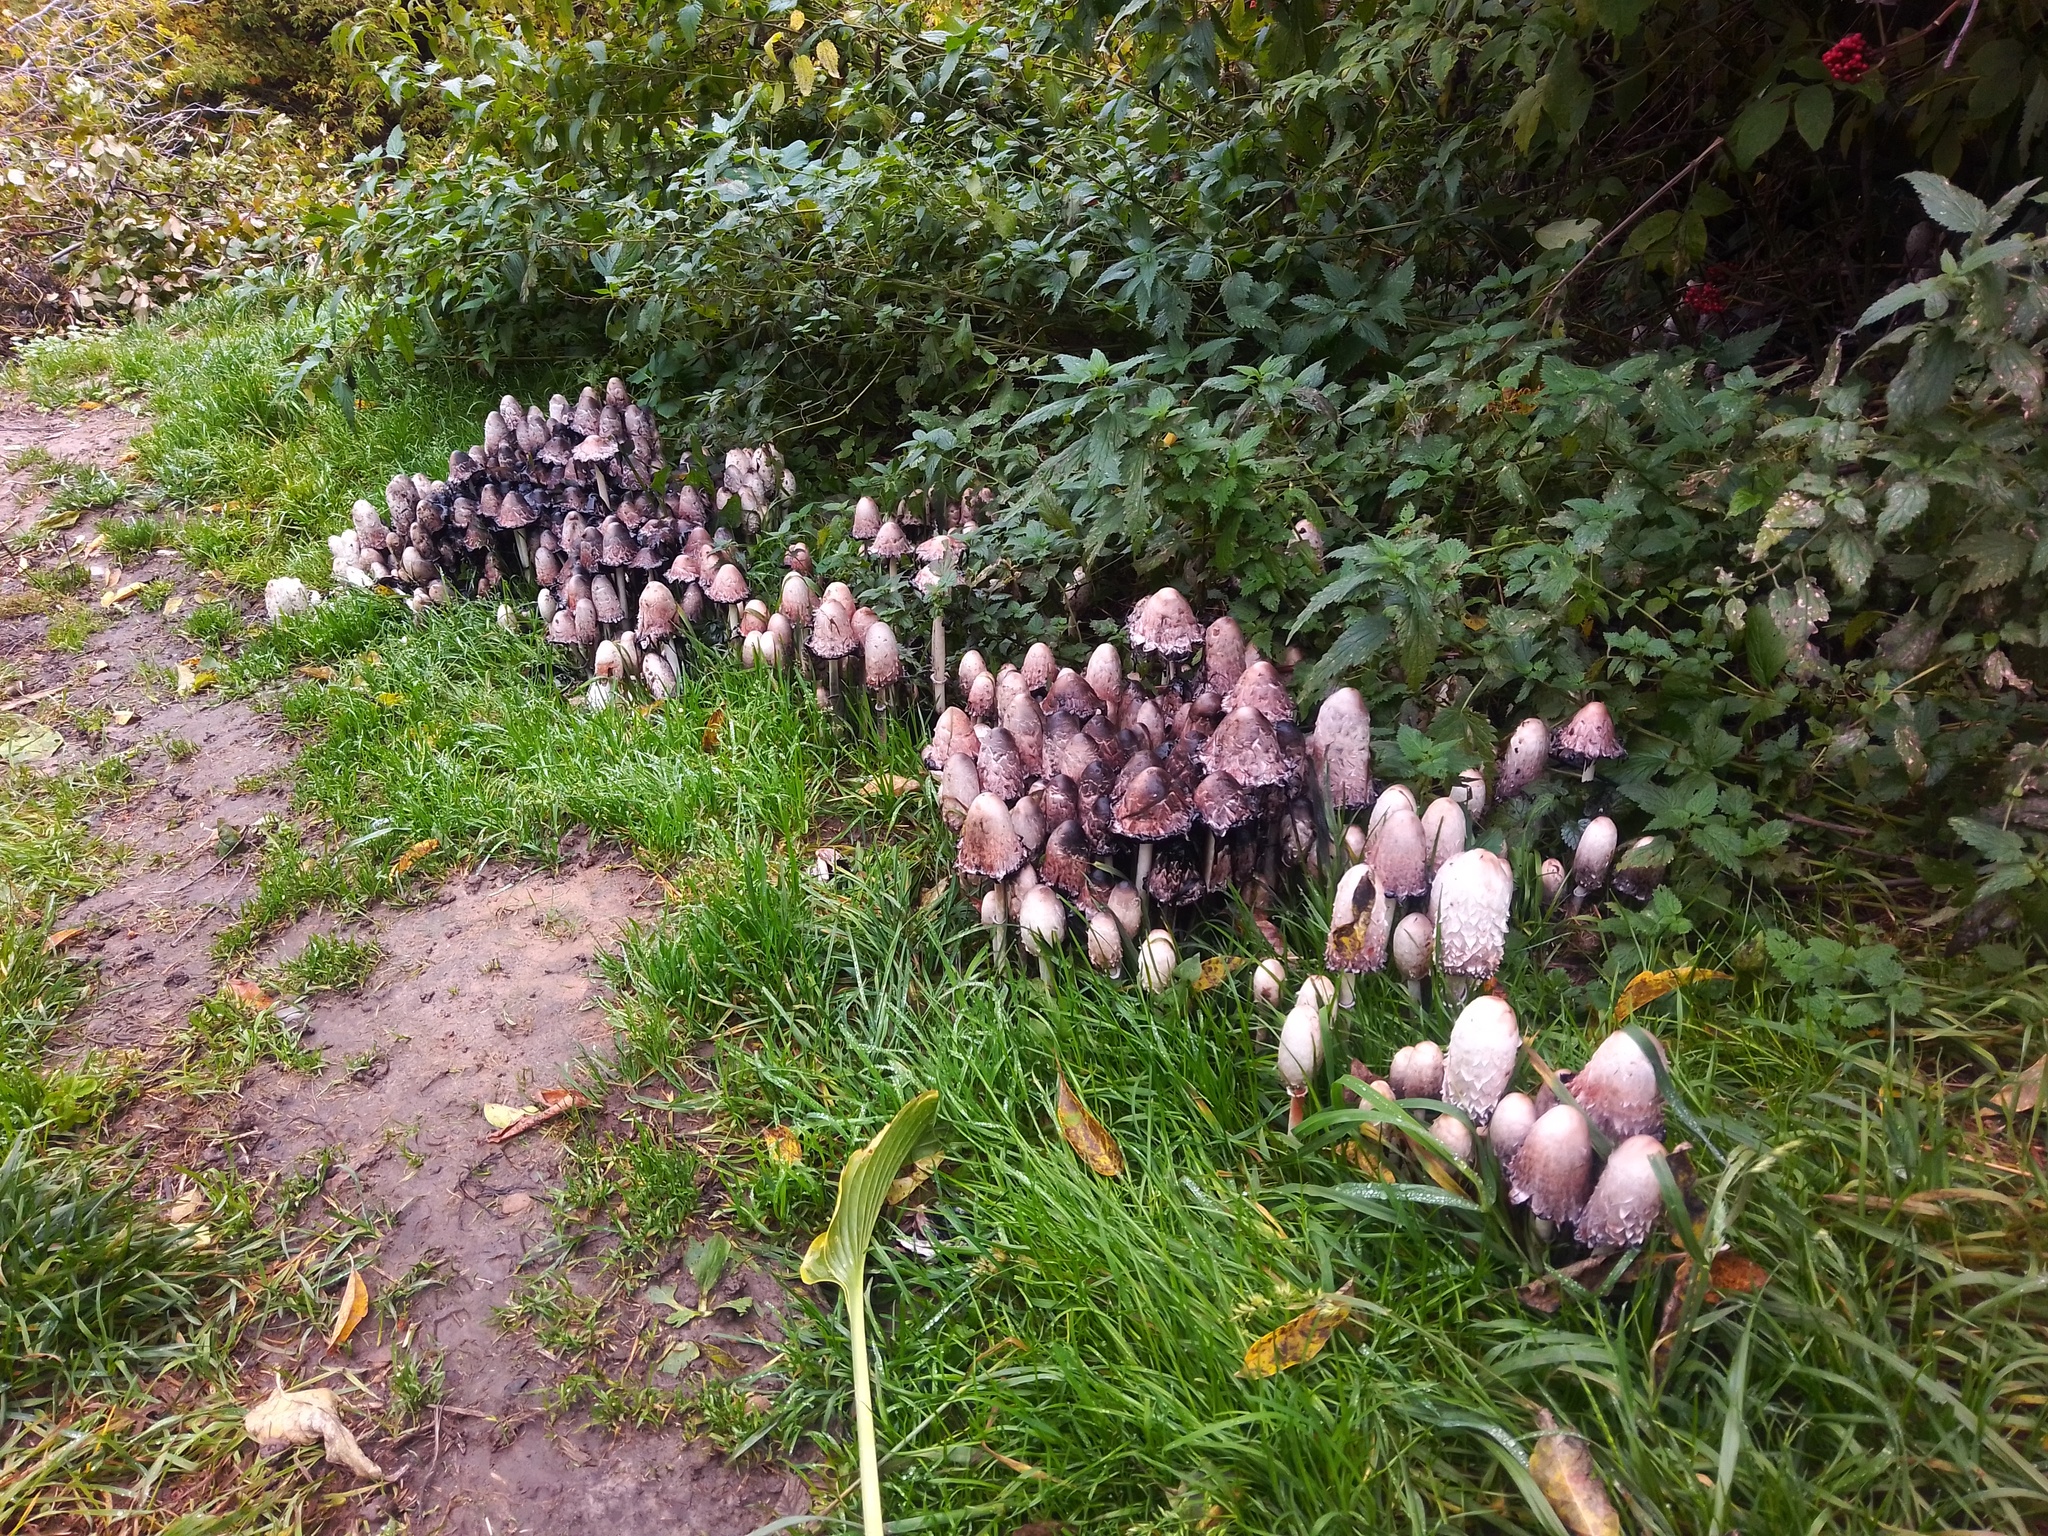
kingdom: Fungi
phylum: Basidiomycota
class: Agaricomycetes
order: Agaricales
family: Agaricaceae
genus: Coprinus
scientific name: Coprinus comatus
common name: Lawyer's wig
